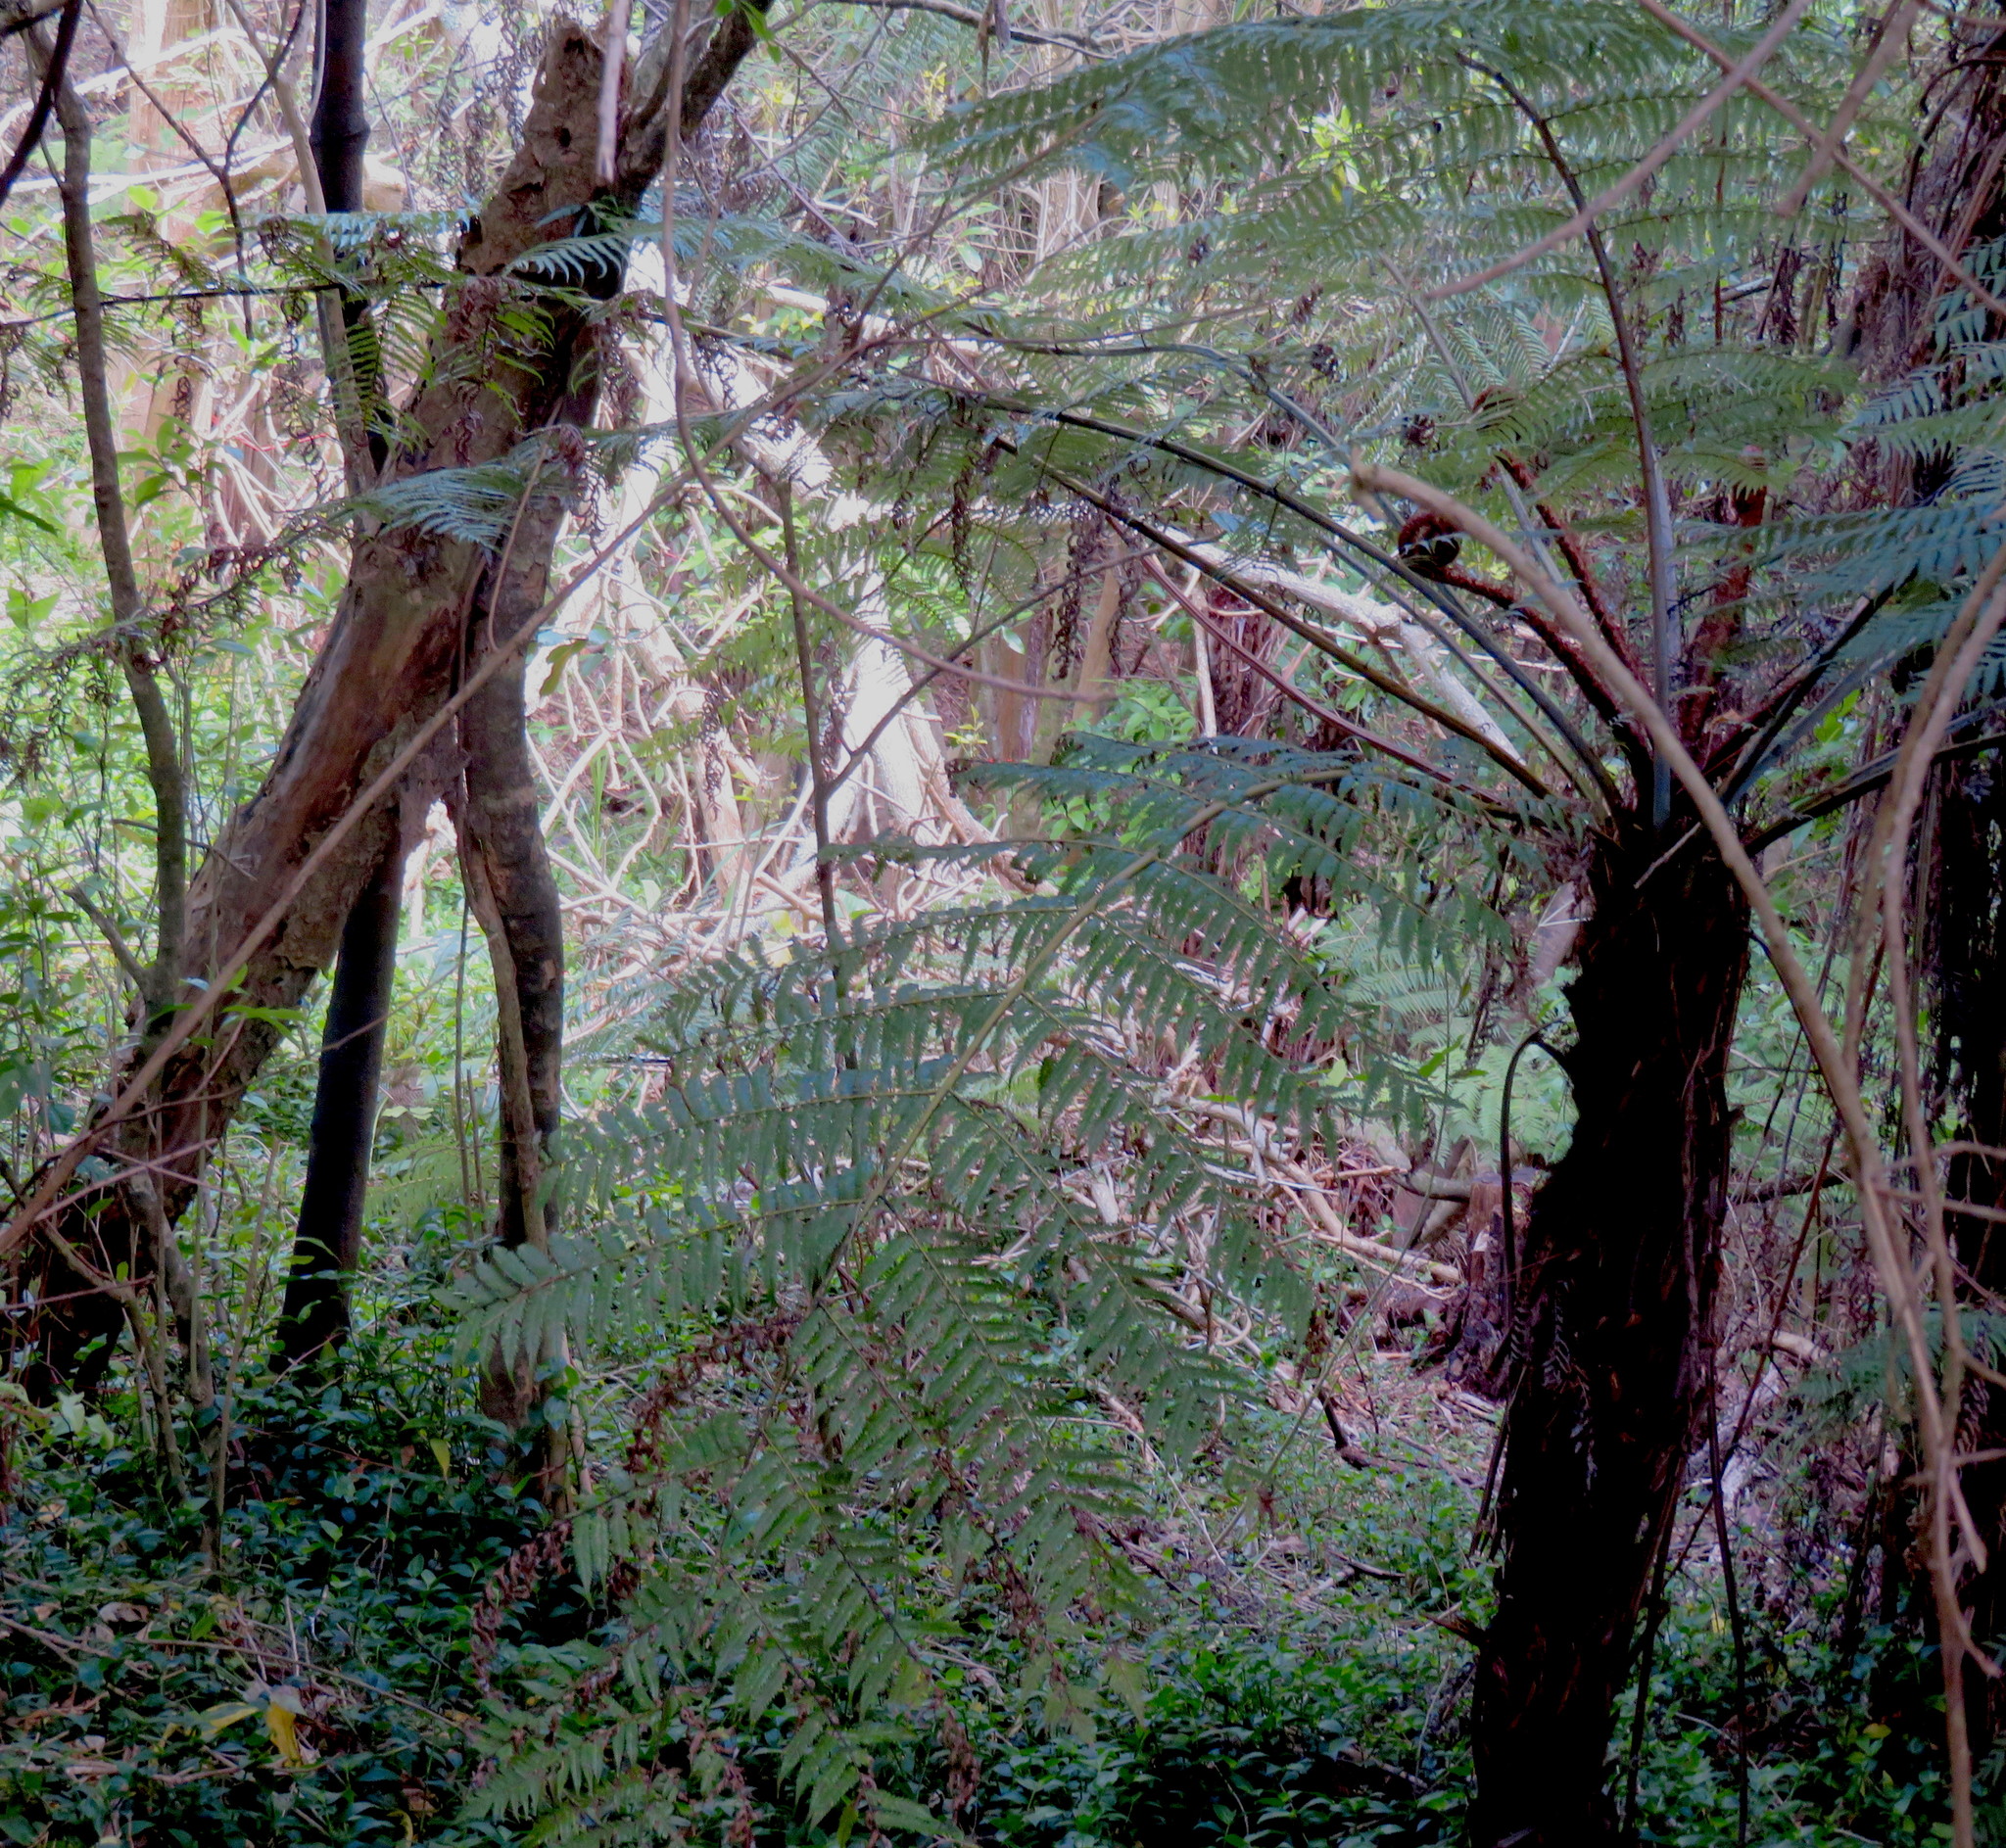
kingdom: Plantae
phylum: Tracheophyta
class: Liliopsida
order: Commelinales
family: Commelinaceae
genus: Tradescantia
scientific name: Tradescantia fluminensis
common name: Wandering-jew
